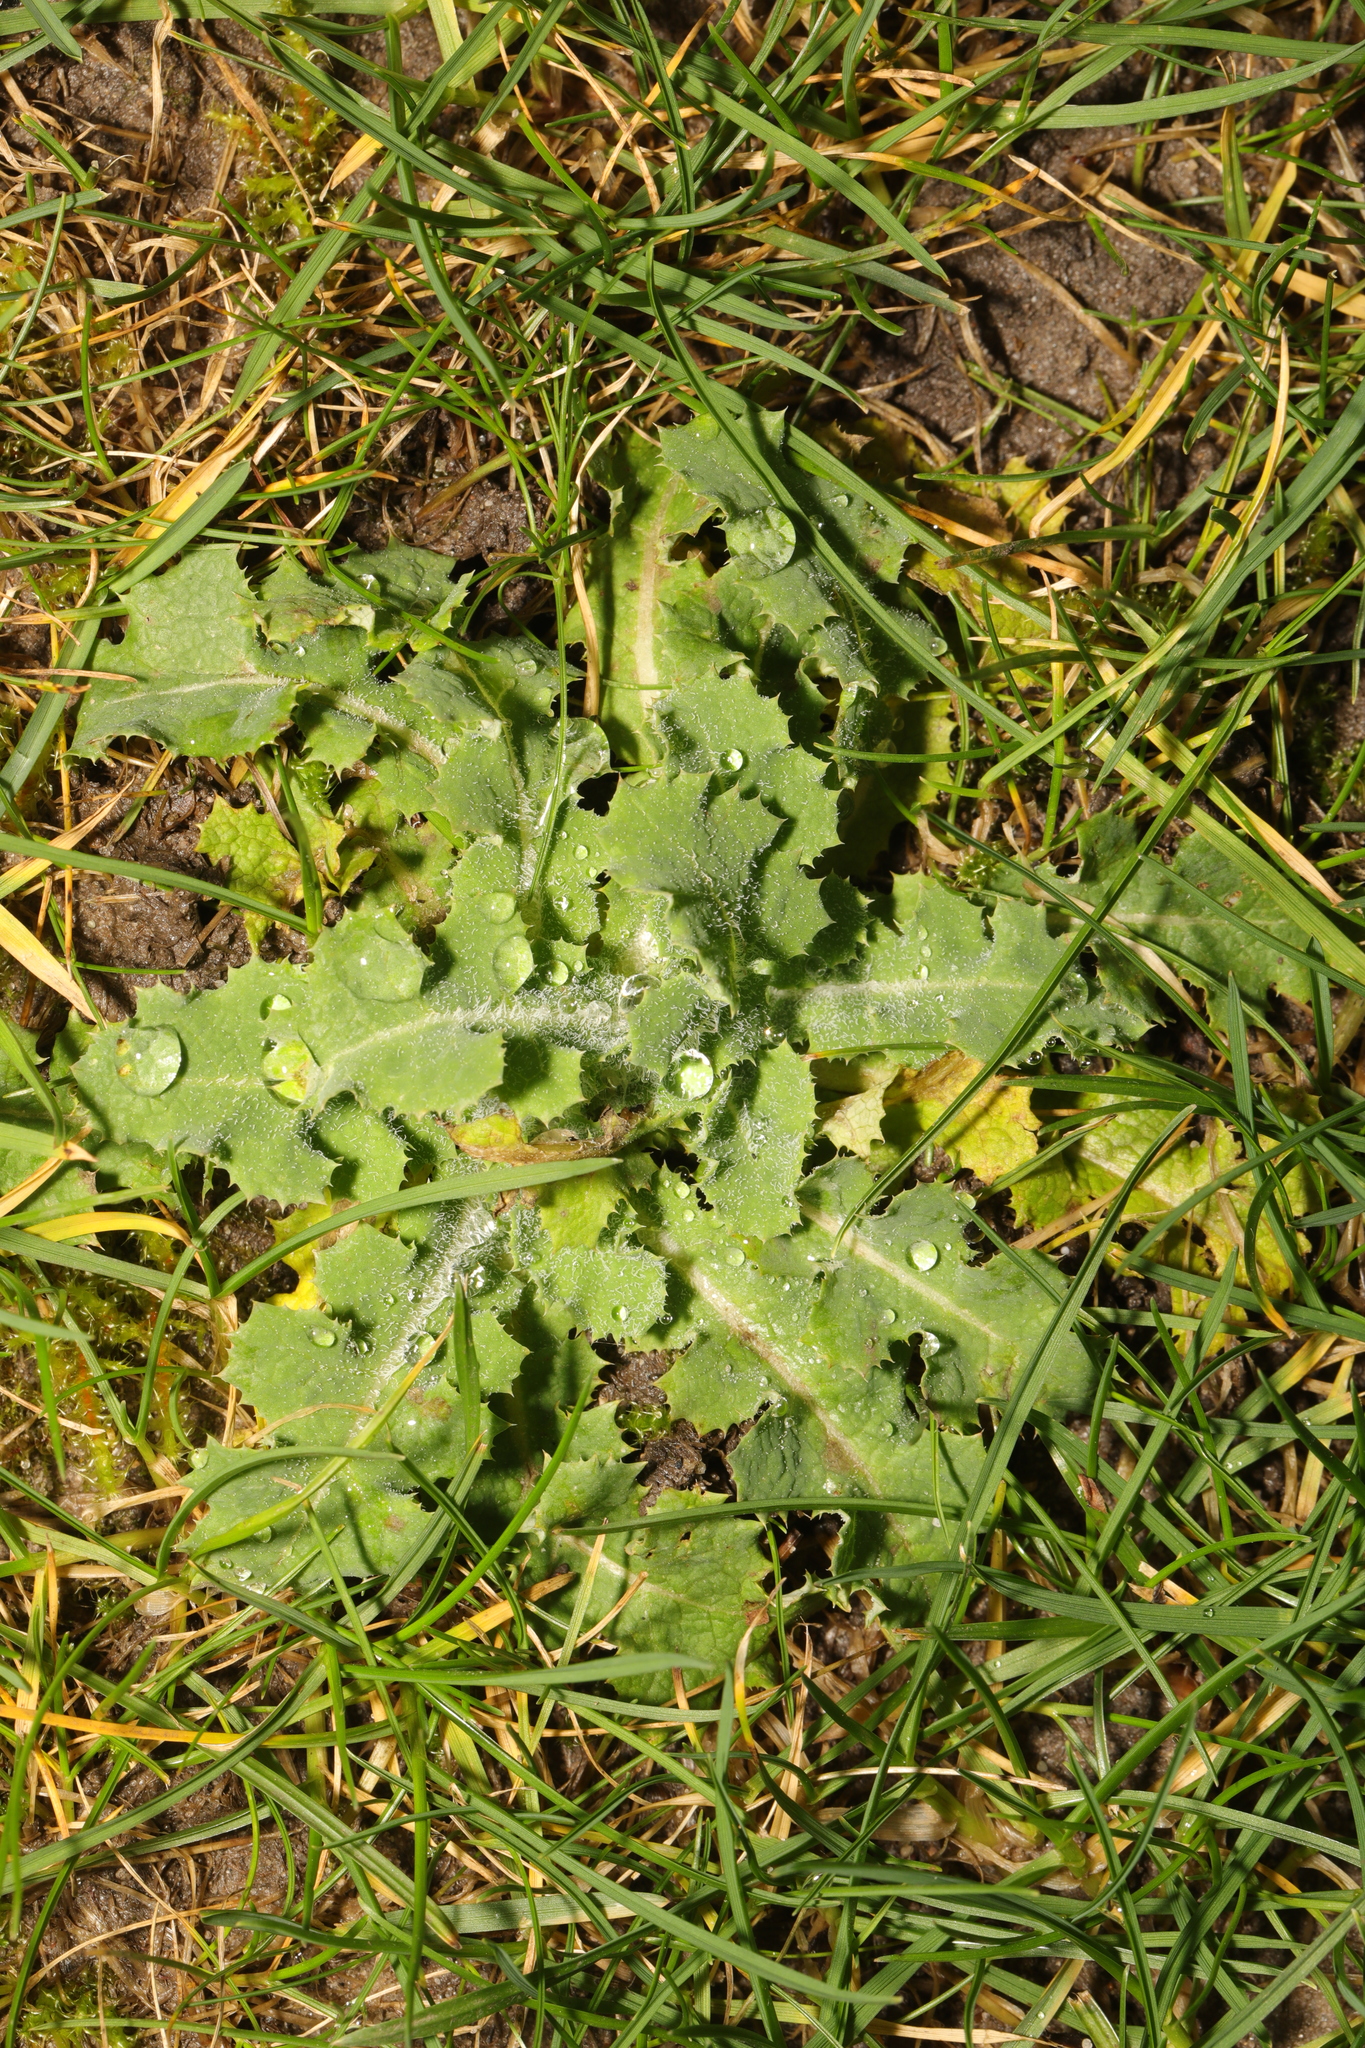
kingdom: Plantae
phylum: Tracheophyta
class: Magnoliopsida
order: Asterales
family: Asteraceae
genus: Sonchus
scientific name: Sonchus oleraceus
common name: Common sowthistle
